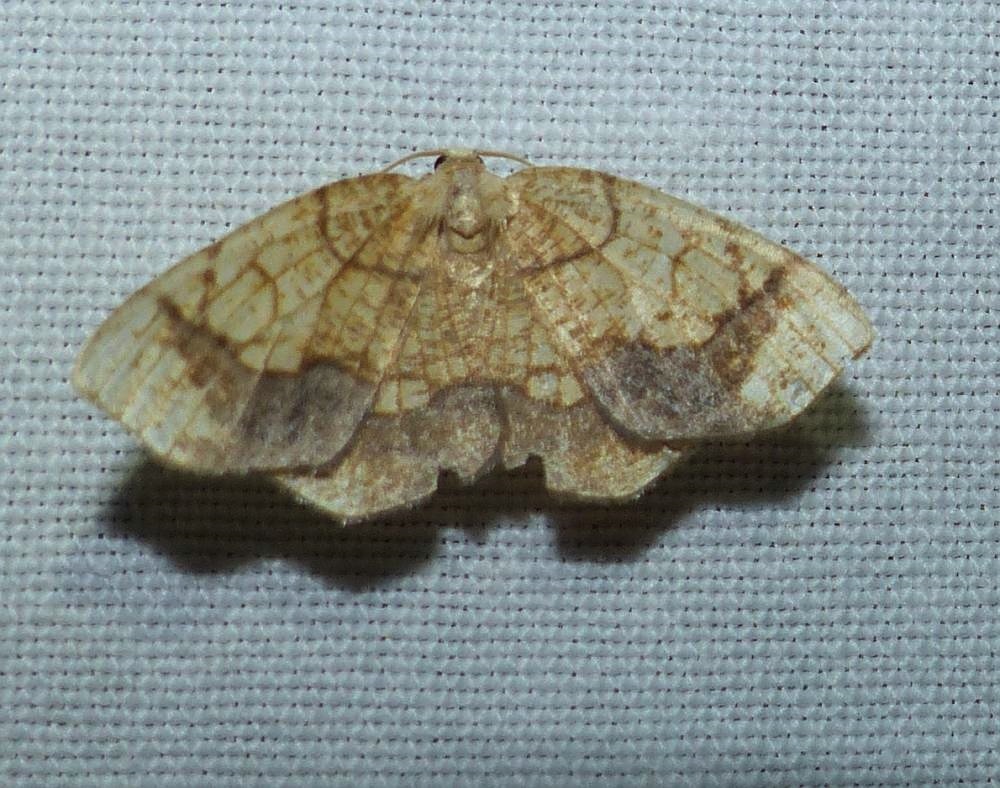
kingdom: Animalia
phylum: Arthropoda
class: Insecta
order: Lepidoptera
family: Geometridae
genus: Nematocampa
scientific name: Nematocampa resistaria
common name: Horned spanworm moth
